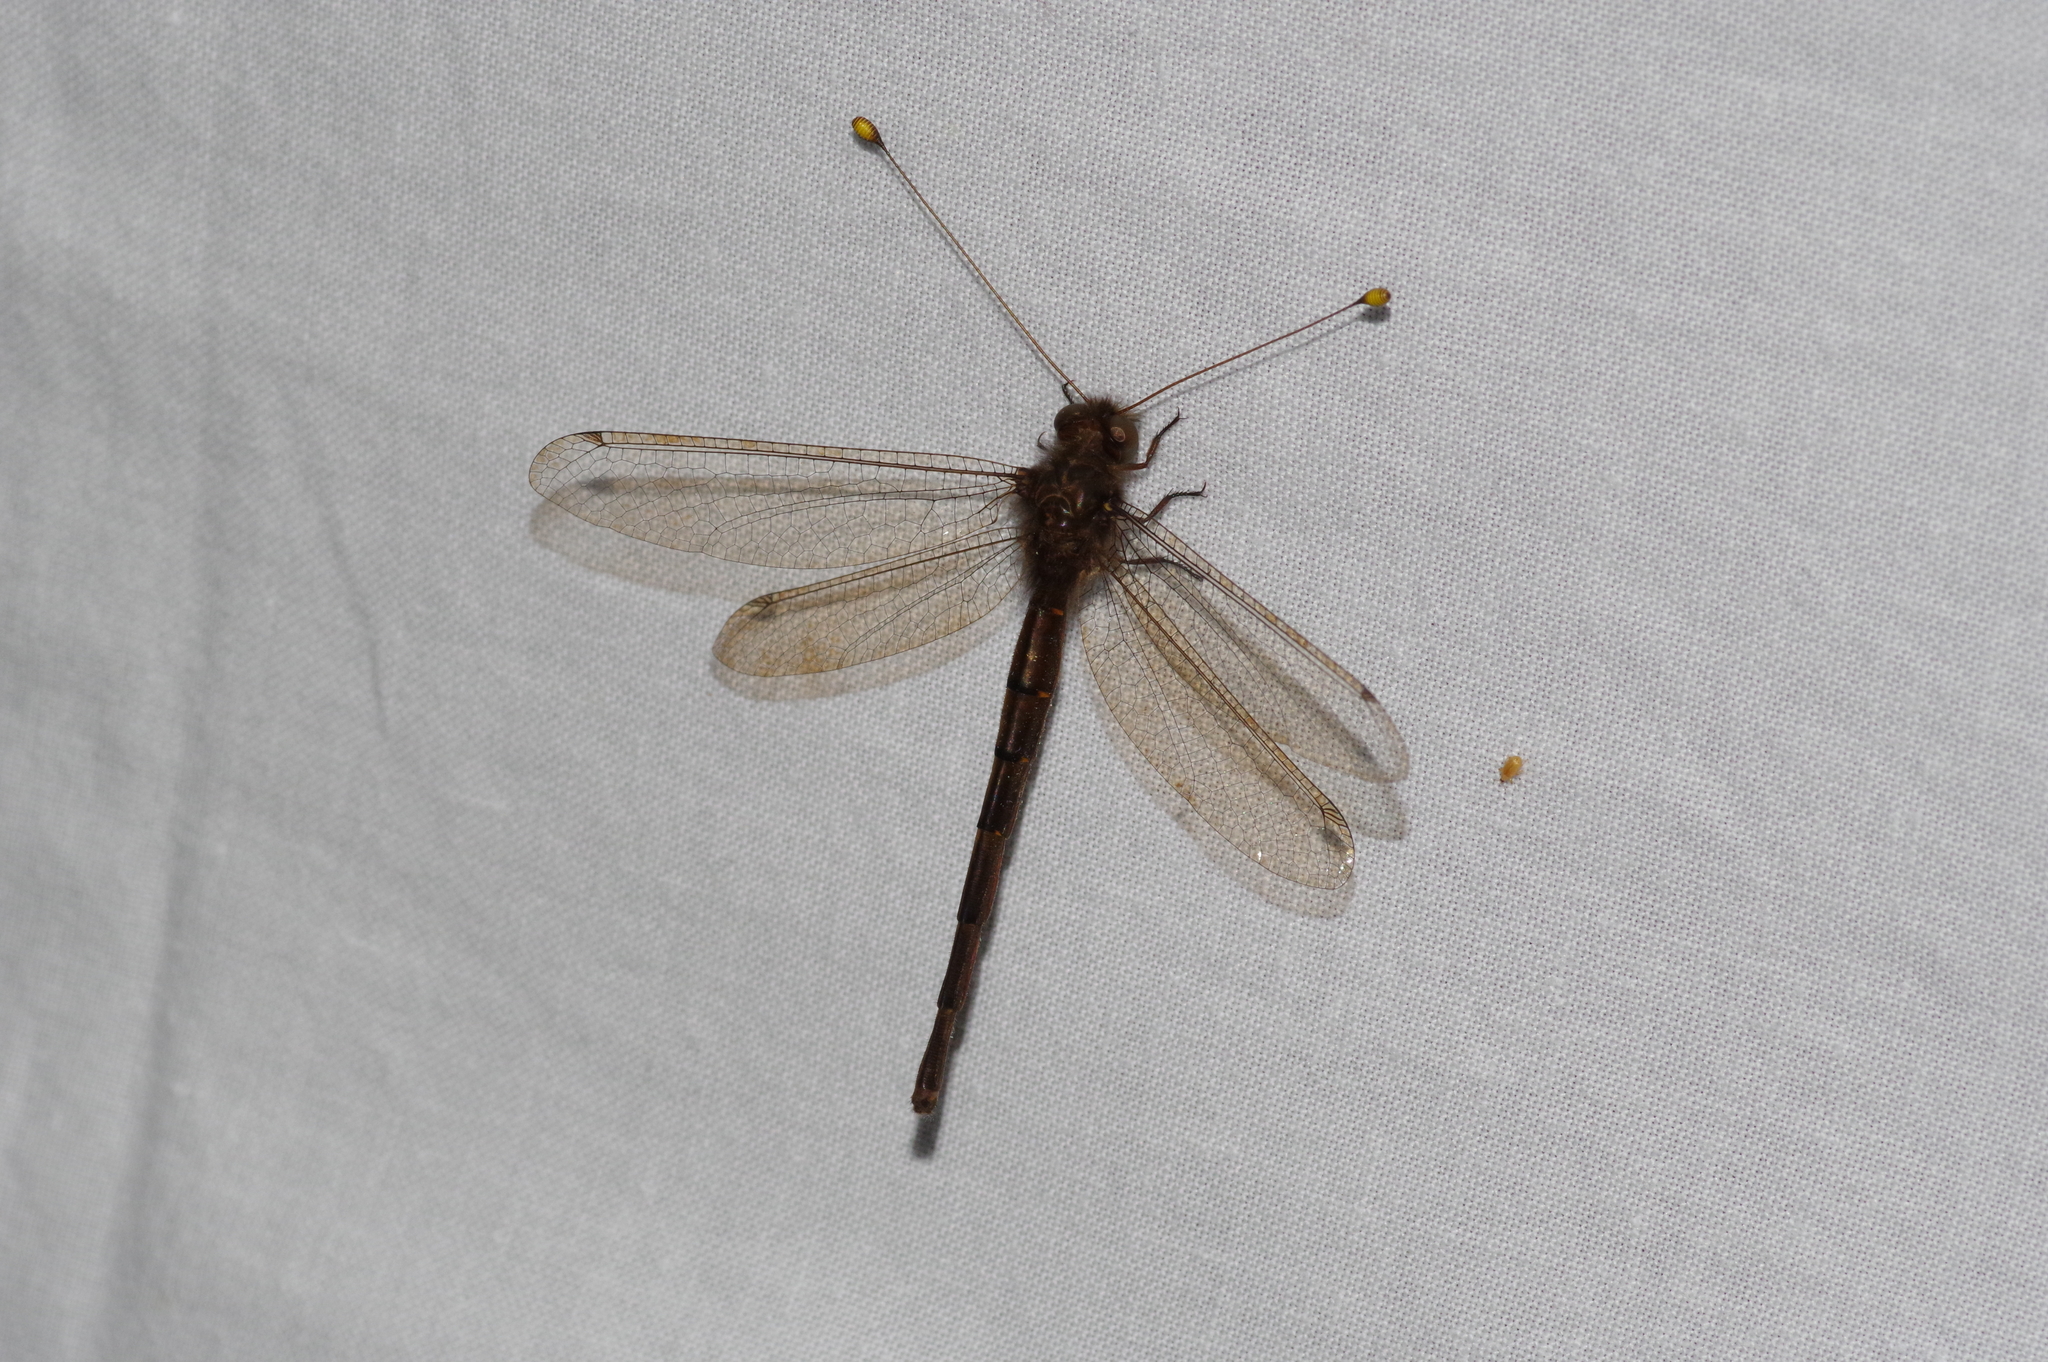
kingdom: Animalia
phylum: Arthropoda
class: Insecta
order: Neuroptera
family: Ascalaphidae
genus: Suhpalacsa
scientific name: Suhpalacsa iriomotensis
